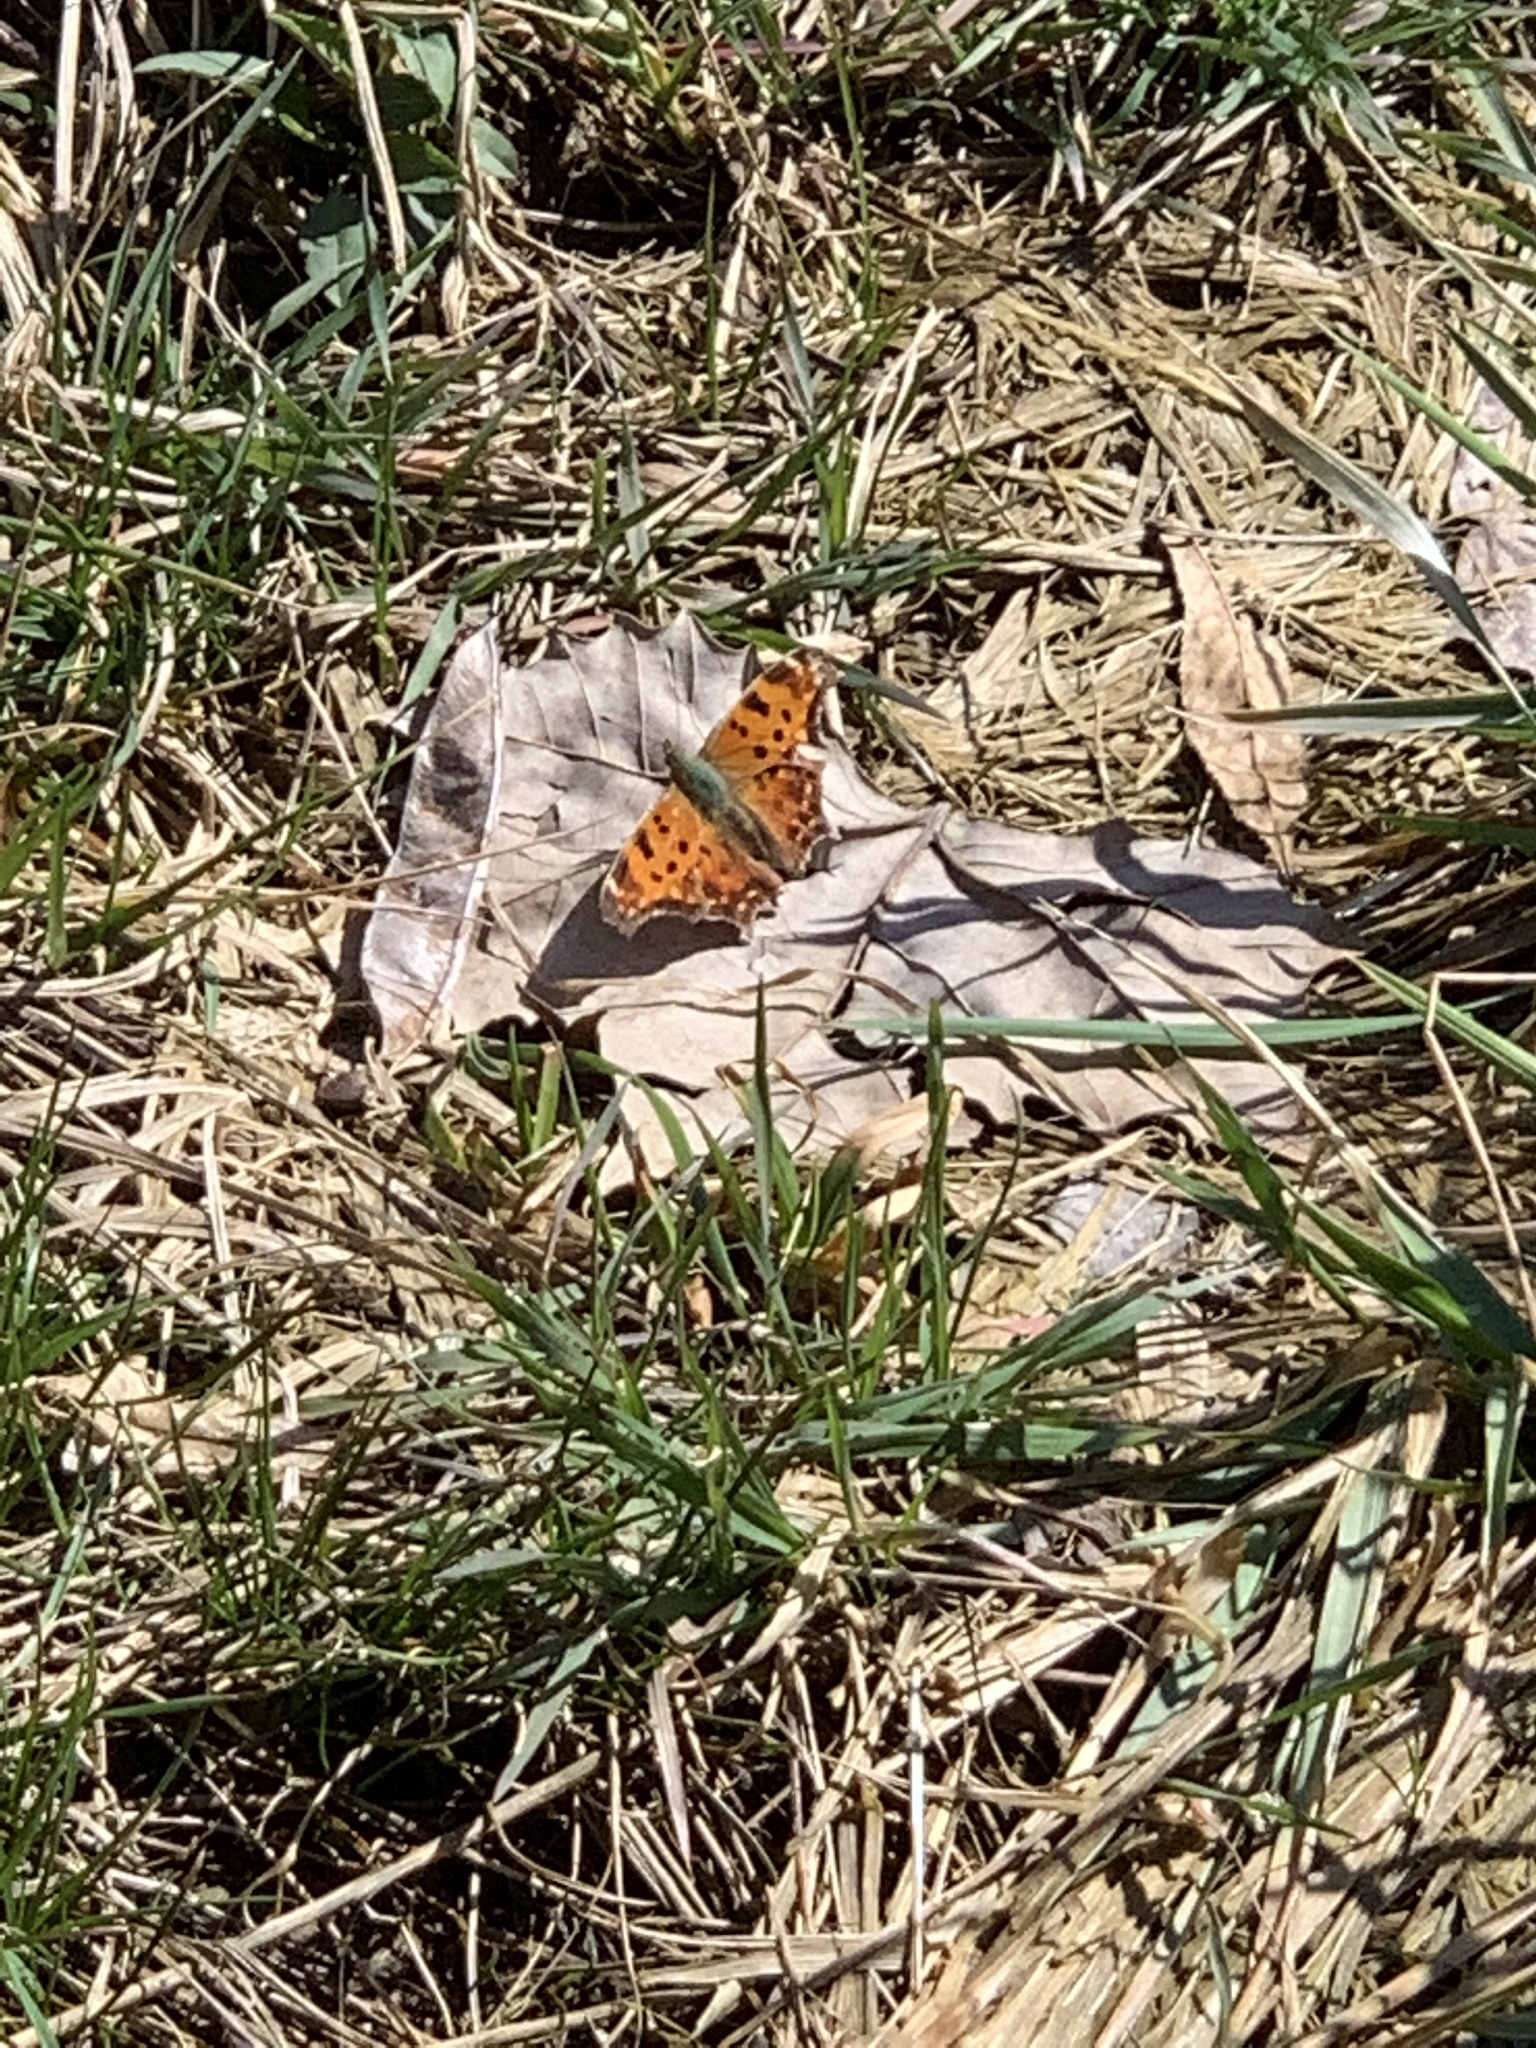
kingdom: Animalia
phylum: Arthropoda
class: Insecta
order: Lepidoptera
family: Nymphalidae
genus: Polygonia
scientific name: Polygonia comma
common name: Eastern comma
